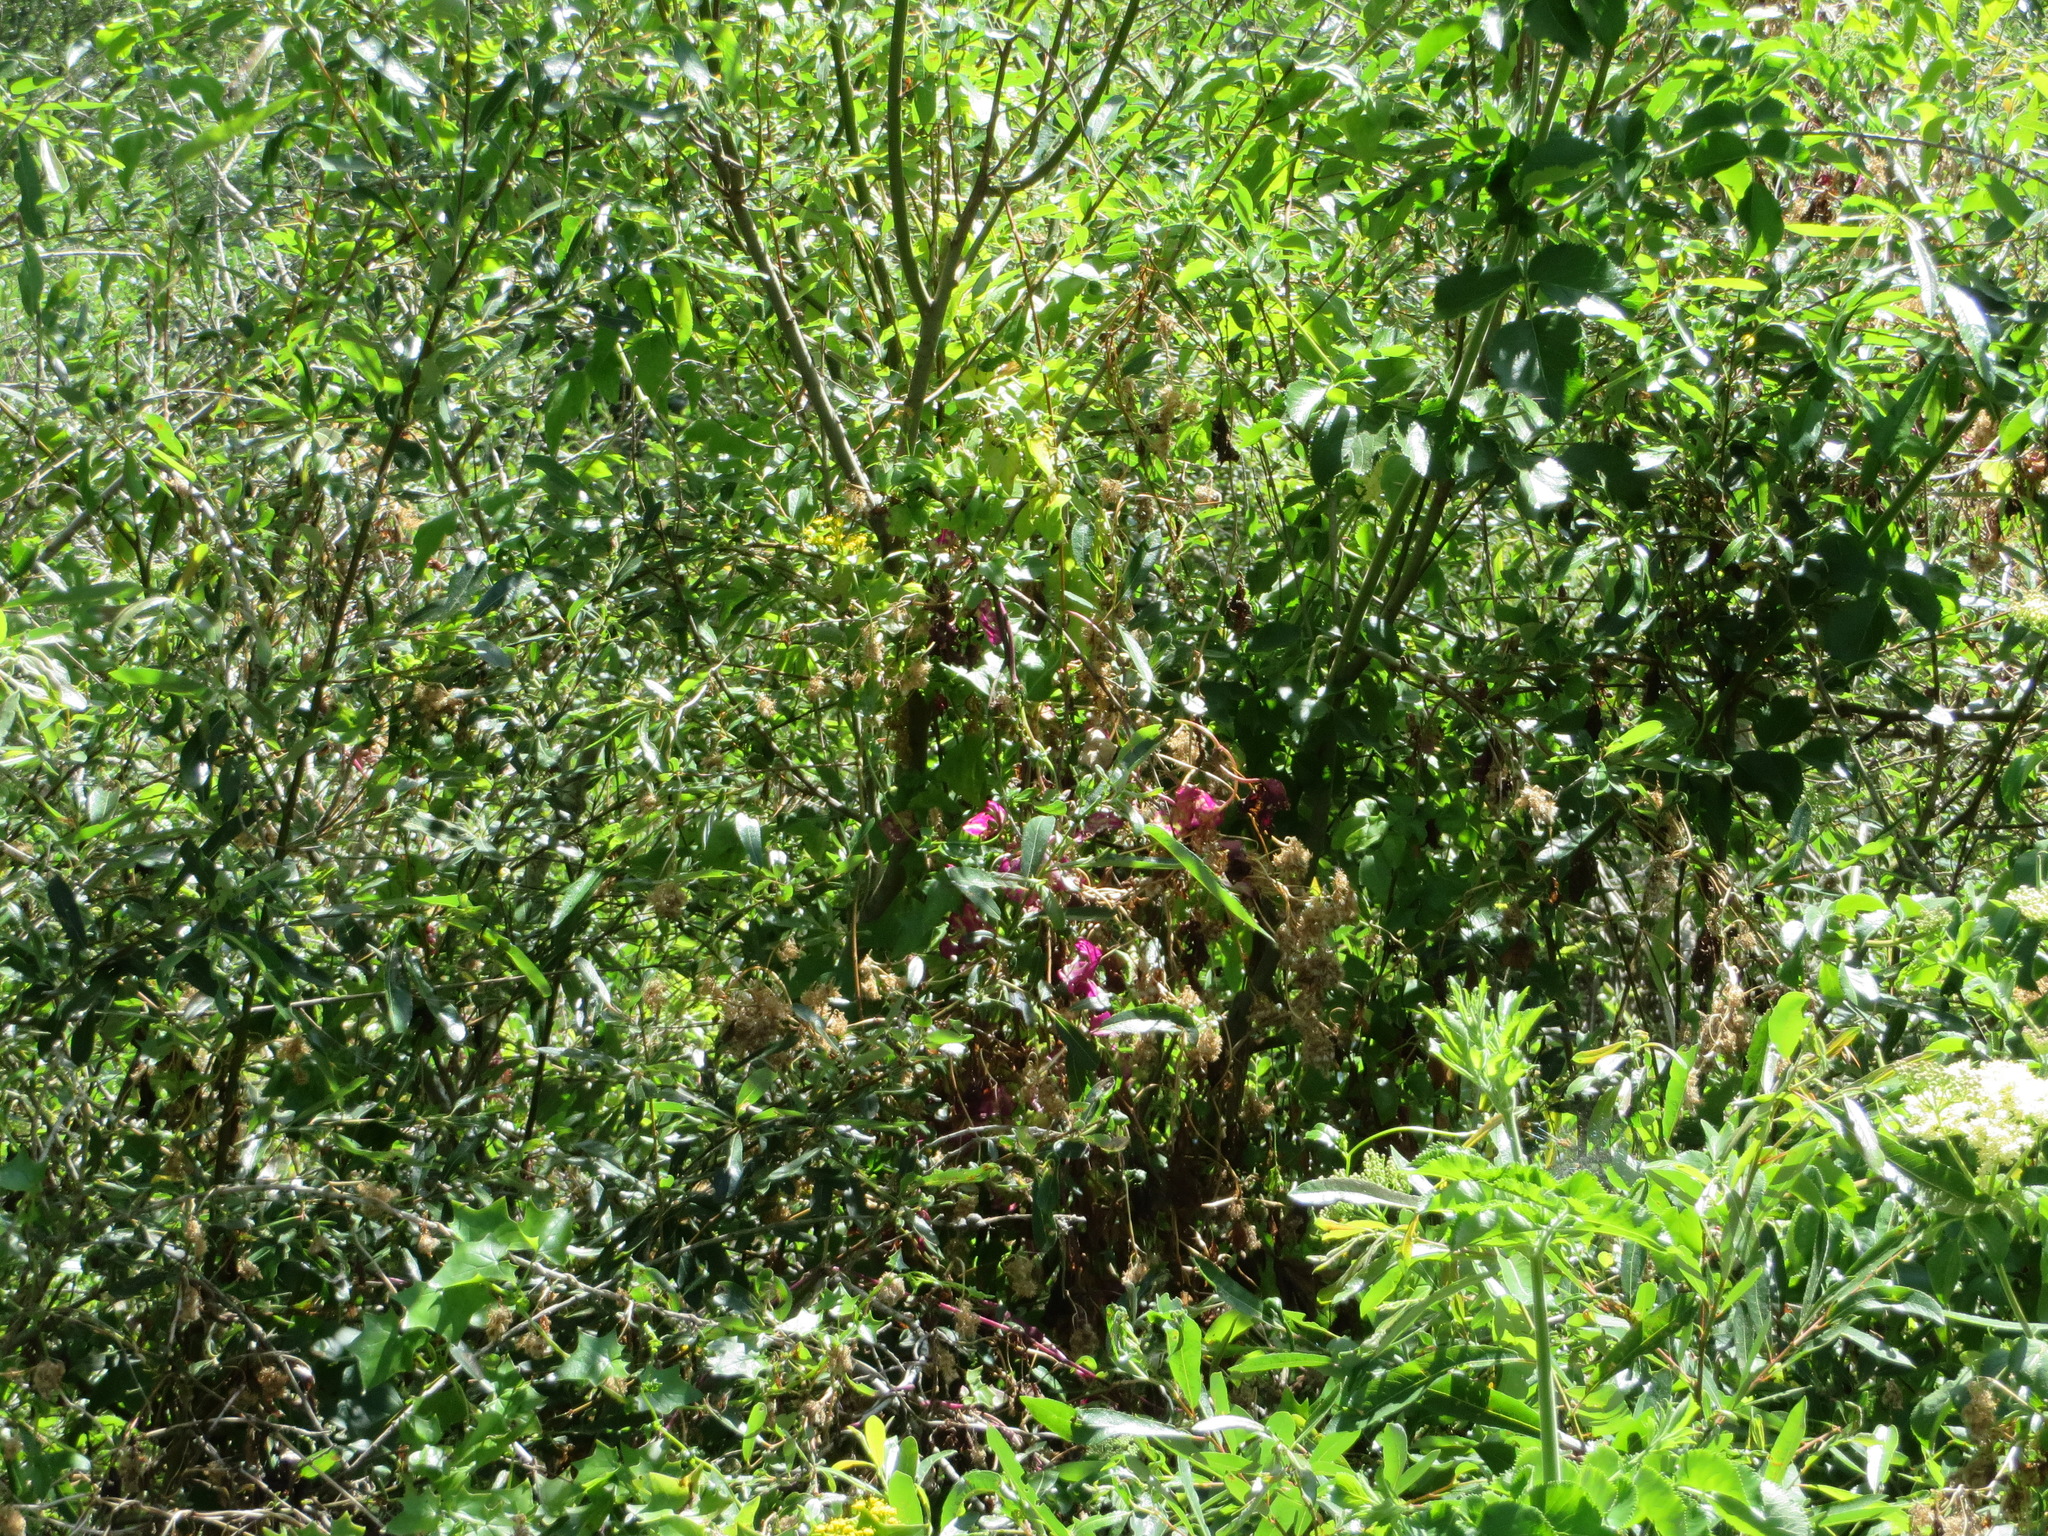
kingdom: Plantae
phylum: Tracheophyta
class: Magnoliopsida
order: Asterales
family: Asteraceae
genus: Delairea
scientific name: Delairea odorata
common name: Cape-ivy
